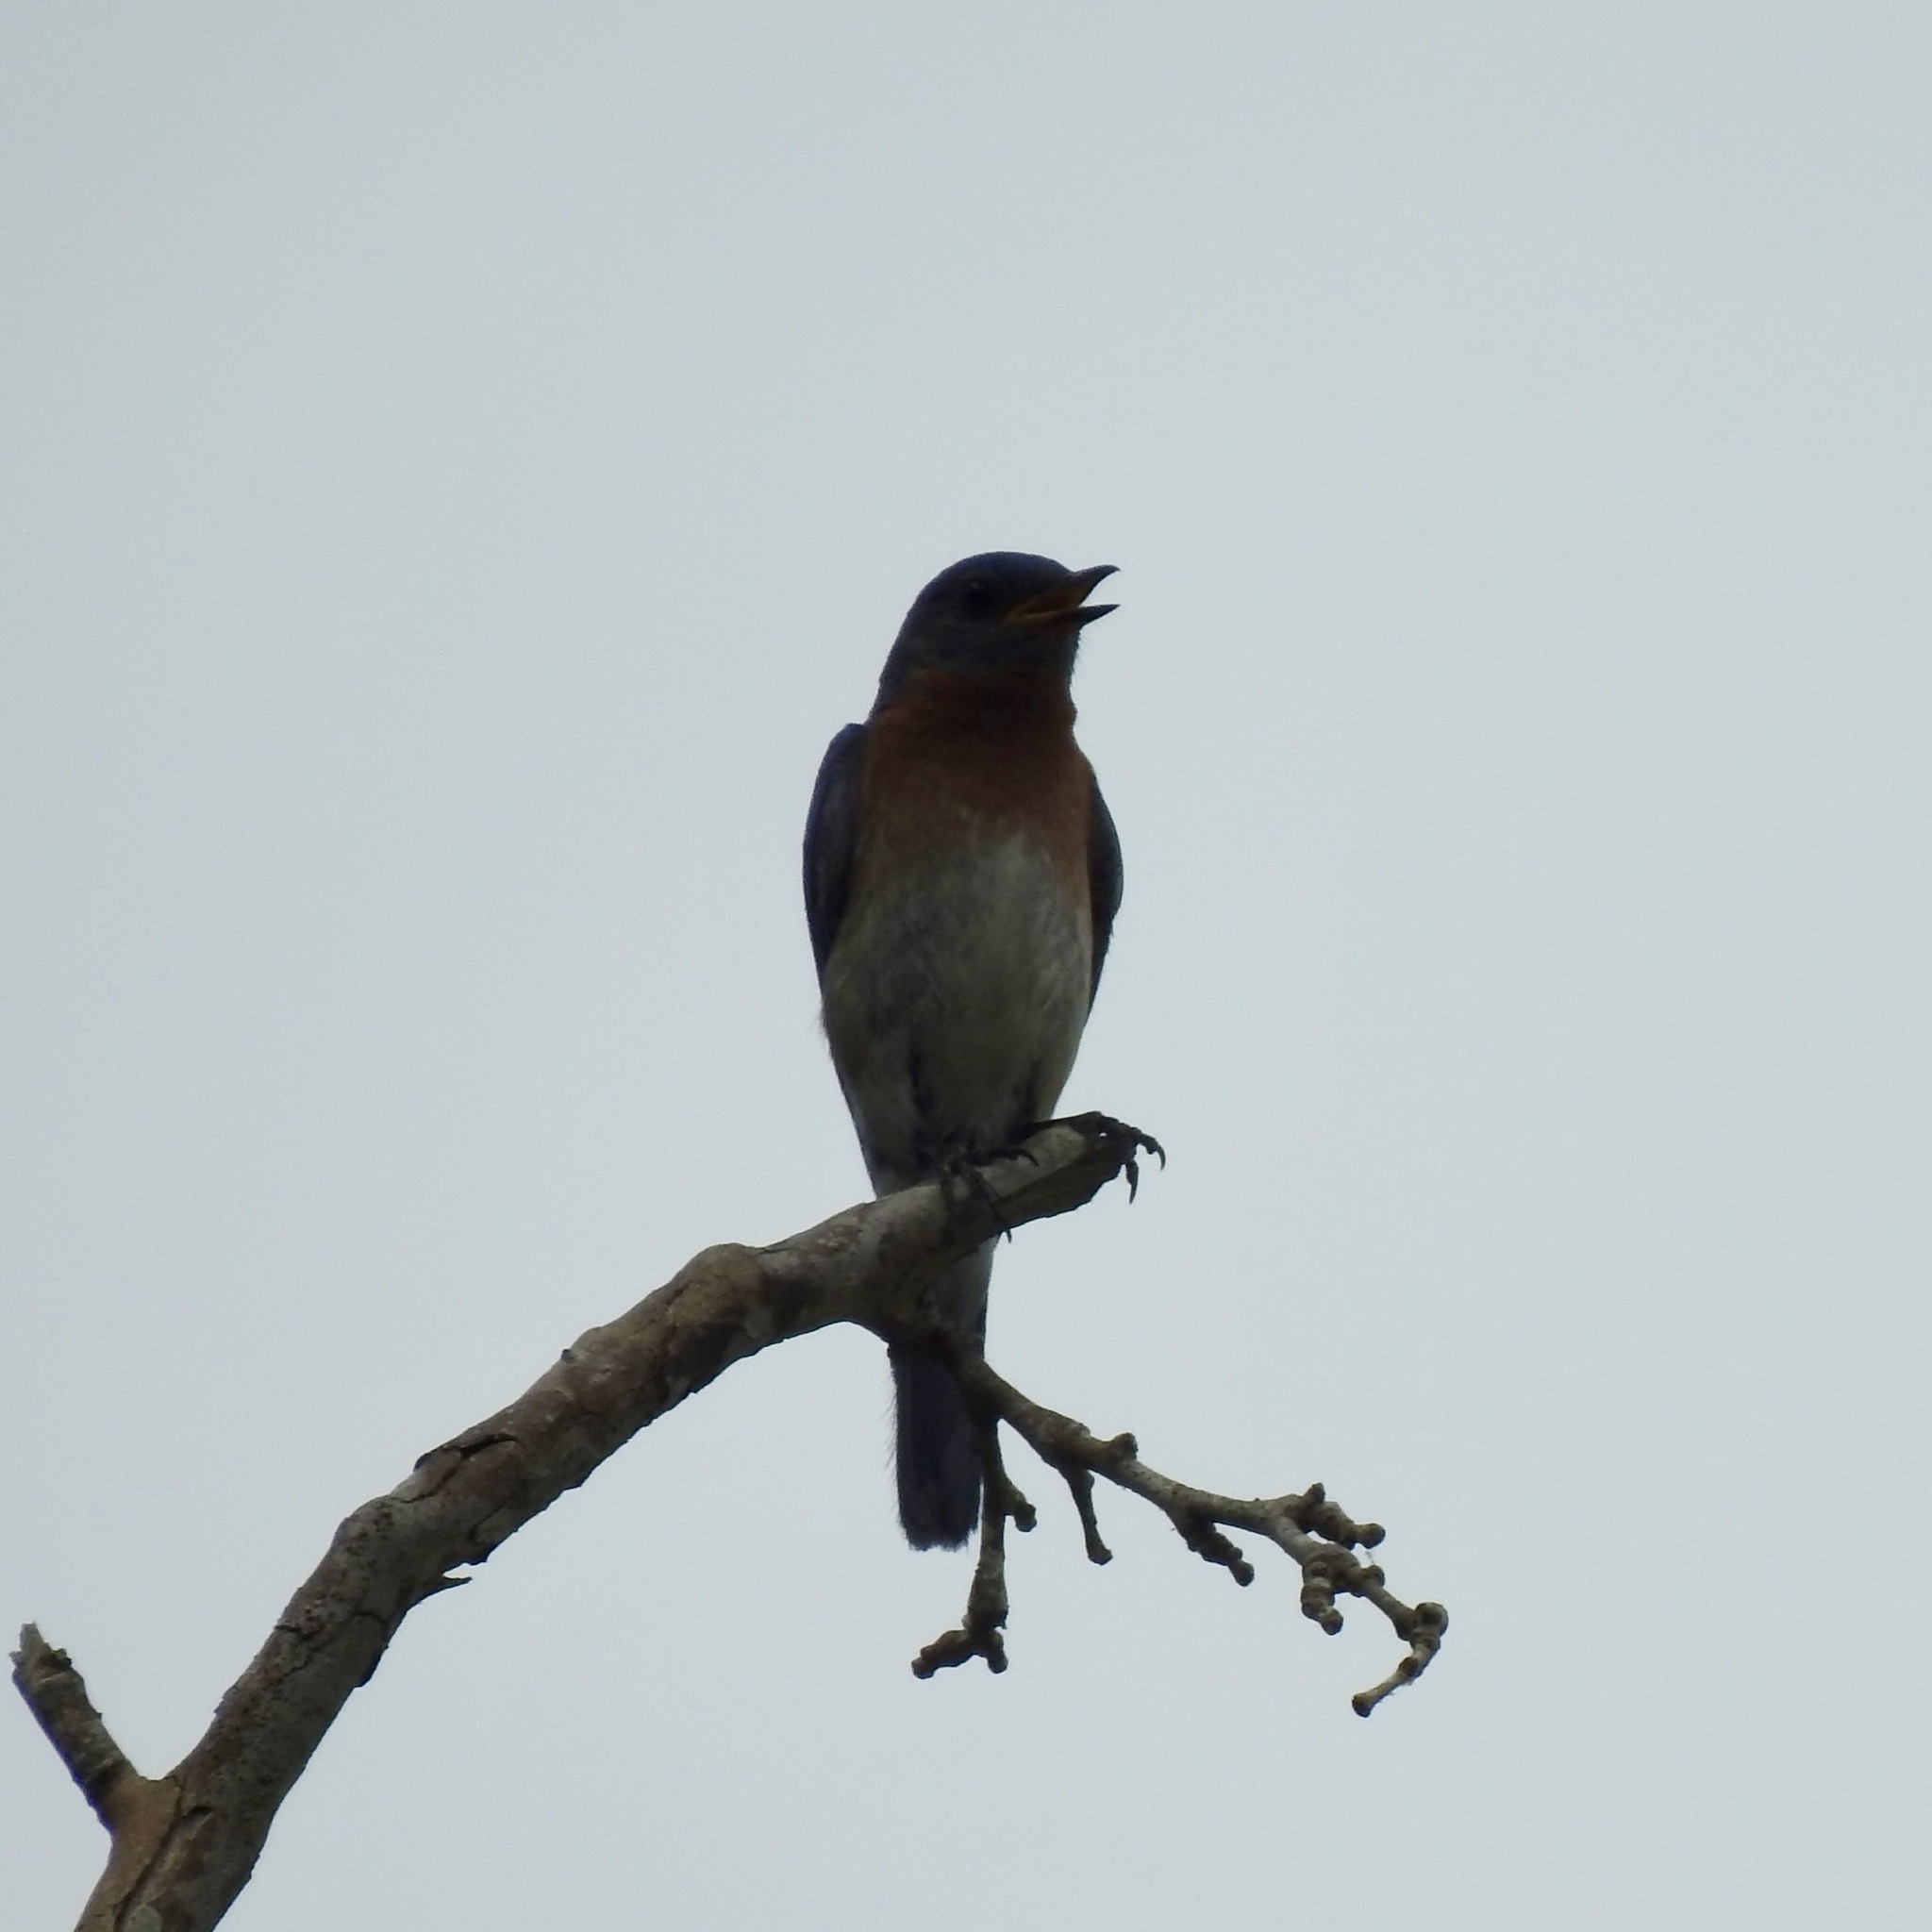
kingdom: Animalia
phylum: Chordata
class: Aves
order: Passeriformes
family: Turdidae
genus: Sialia
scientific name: Sialia sialis
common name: Eastern bluebird
